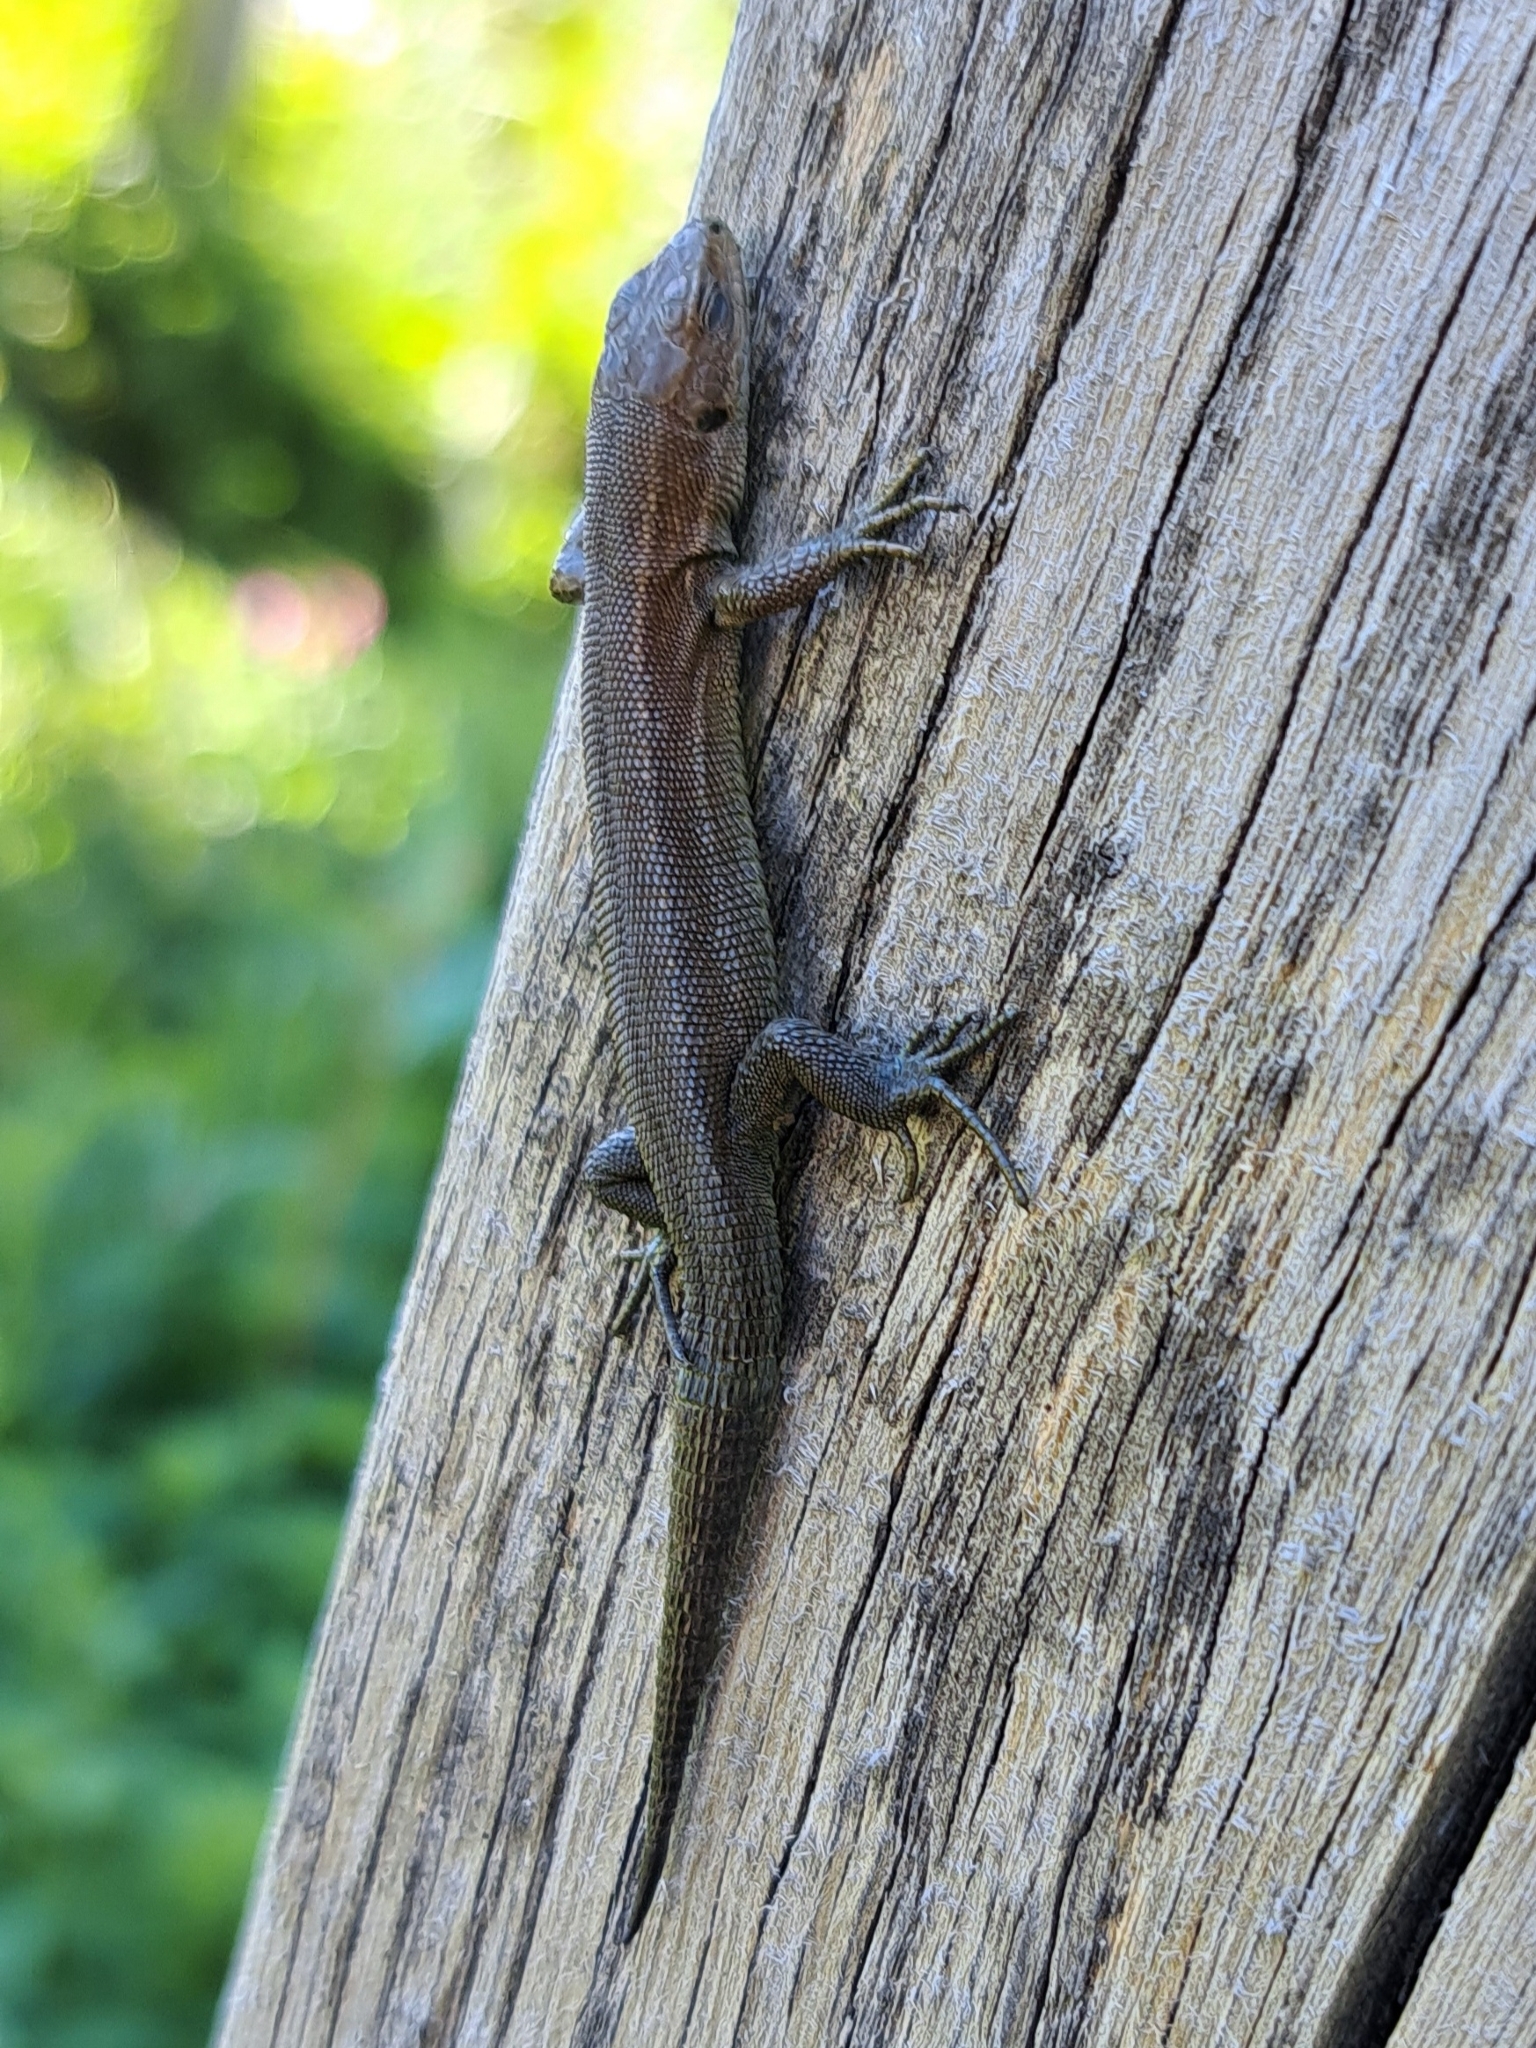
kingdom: Animalia
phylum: Chordata
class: Squamata
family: Lacertidae
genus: Zootoca
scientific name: Zootoca vivipara
